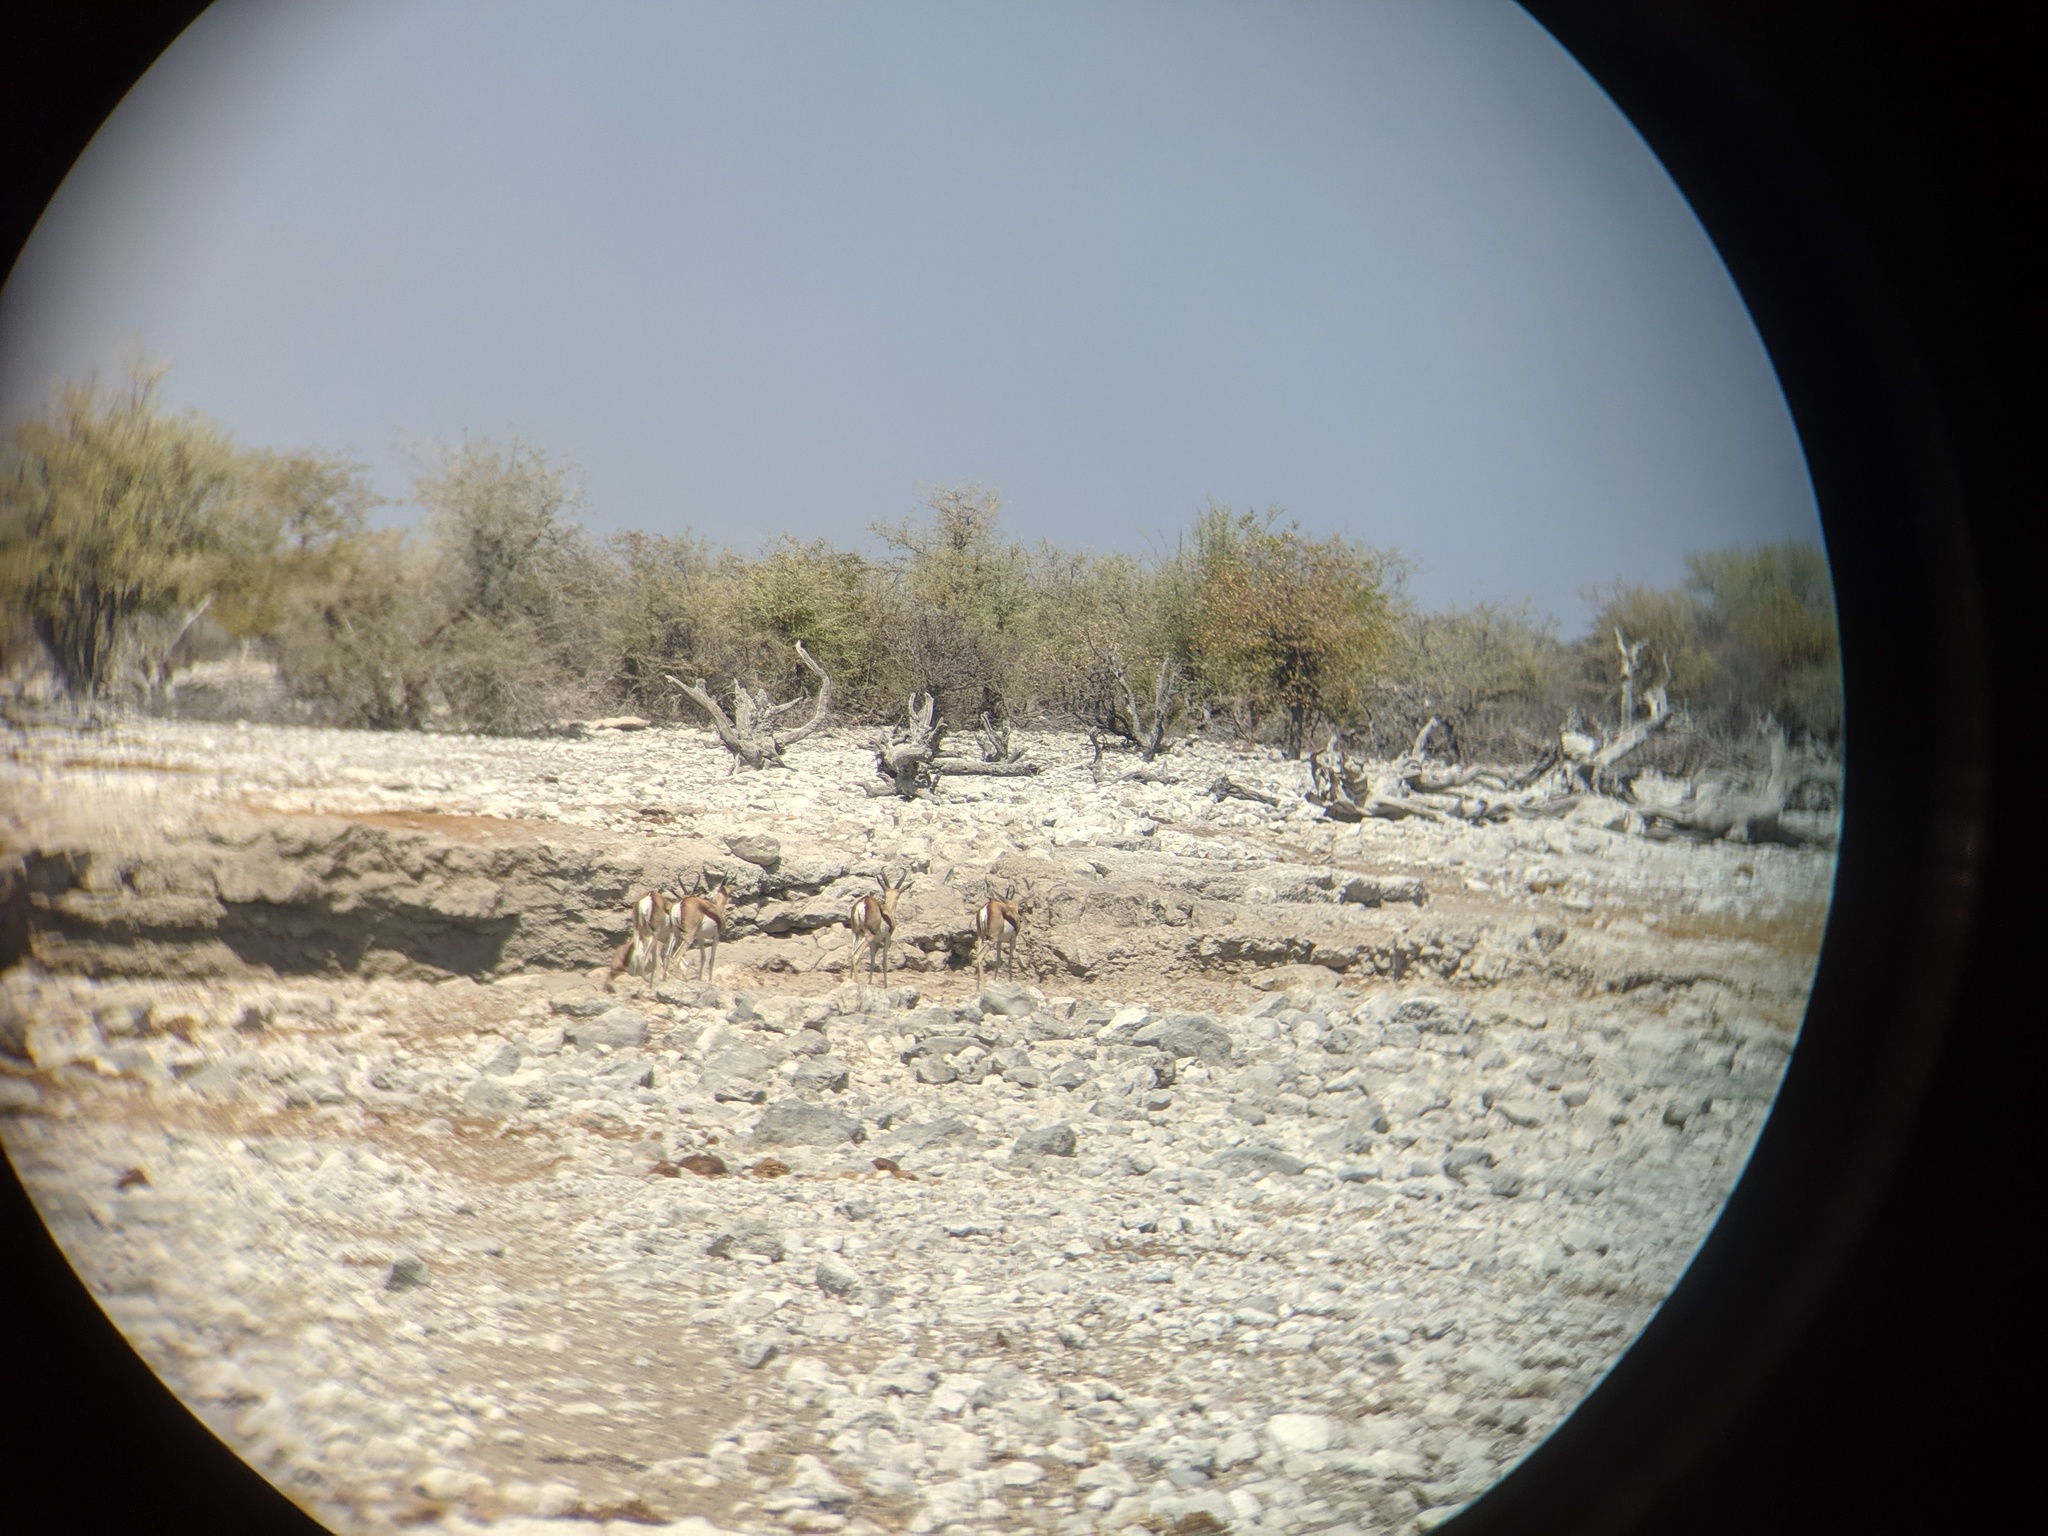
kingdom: Animalia
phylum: Chordata
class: Mammalia
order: Artiodactyla
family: Bovidae
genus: Antidorcas
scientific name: Antidorcas marsupialis
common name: Springbok
